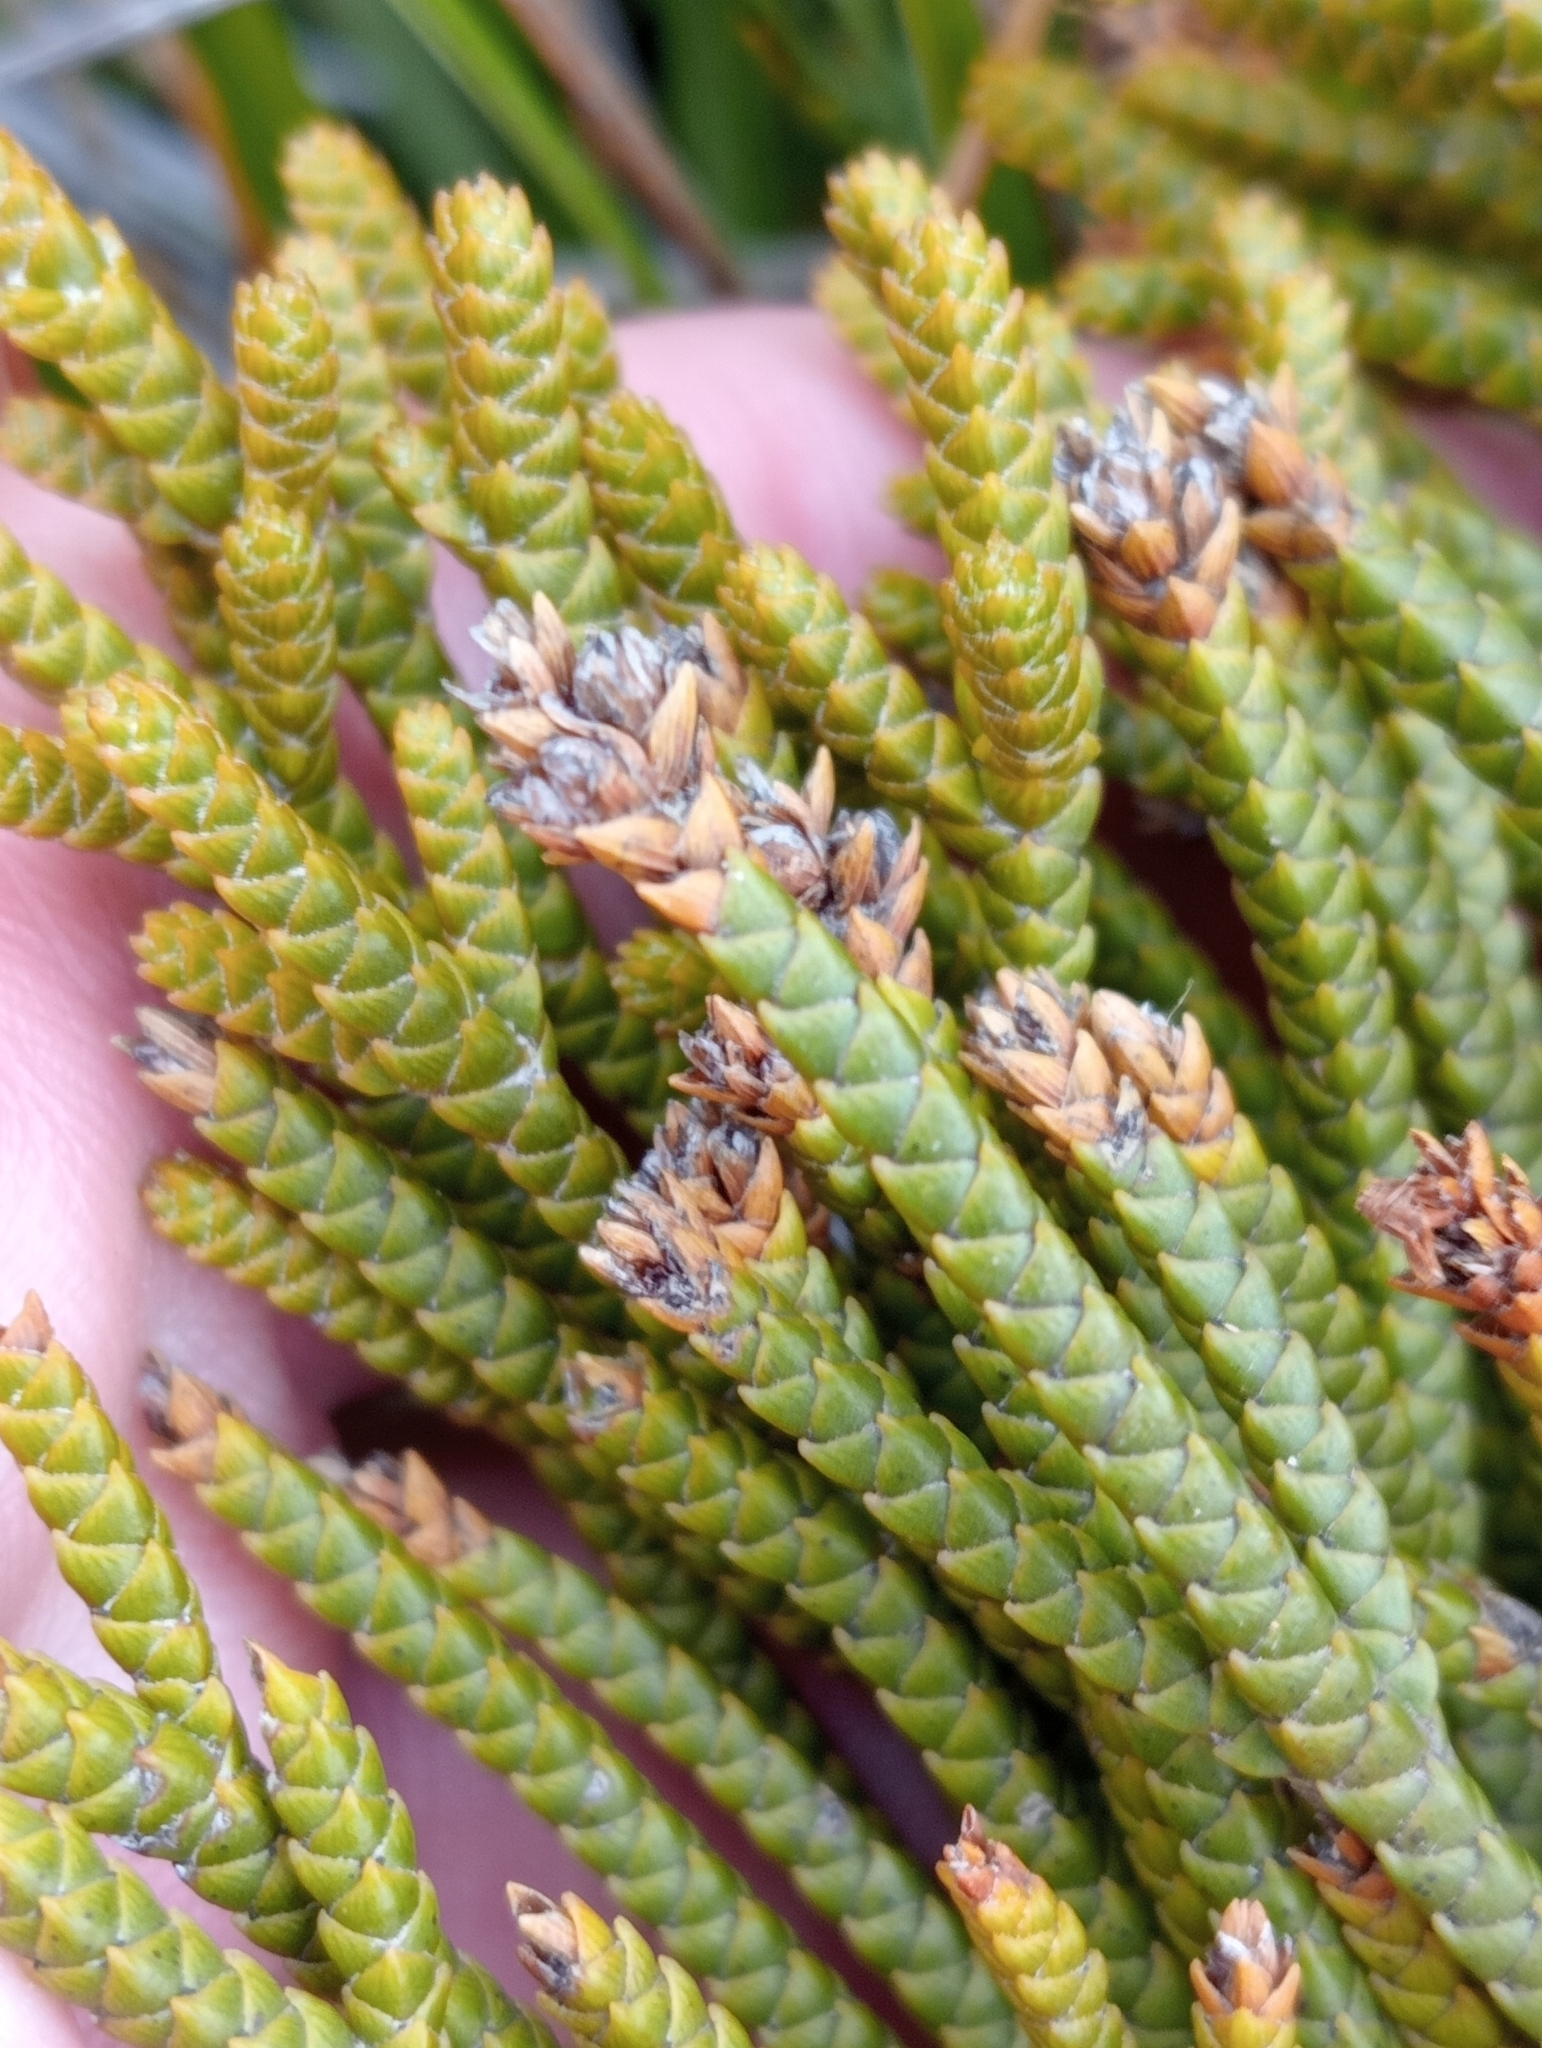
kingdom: Plantae
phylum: Tracheophyta
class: Magnoliopsida
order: Lamiales
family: Plantaginaceae
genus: Veronica
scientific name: Veronica lycopodioides
